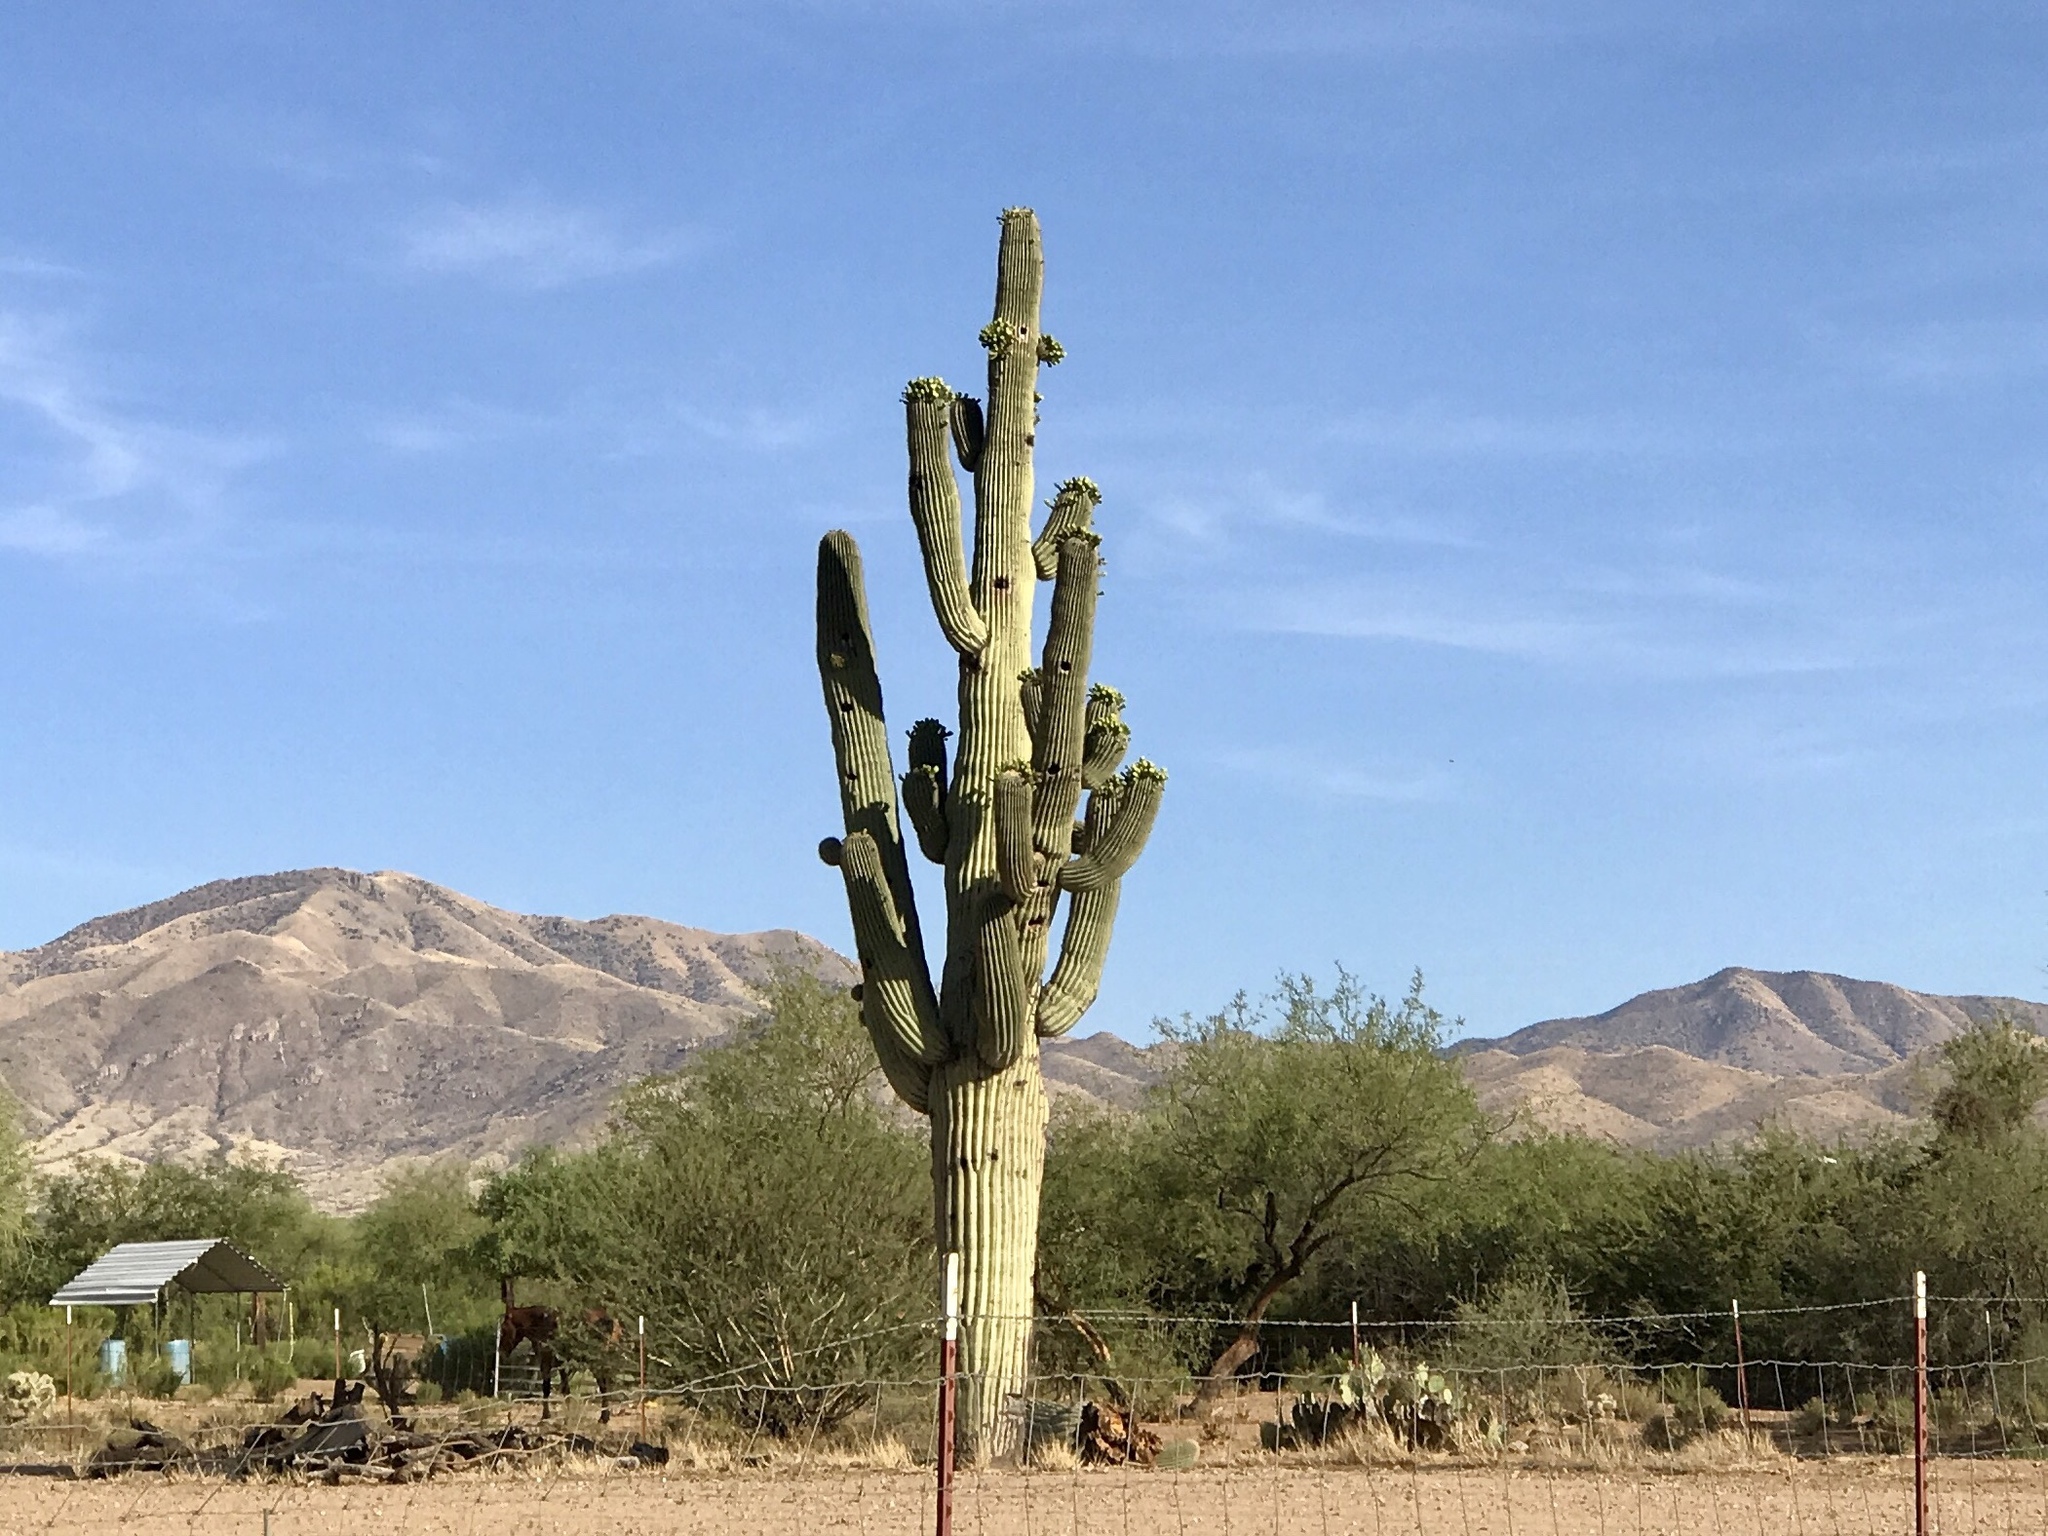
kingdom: Plantae
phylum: Tracheophyta
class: Magnoliopsida
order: Caryophyllales
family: Cactaceae
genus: Carnegiea
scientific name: Carnegiea gigantea
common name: Saguaro
